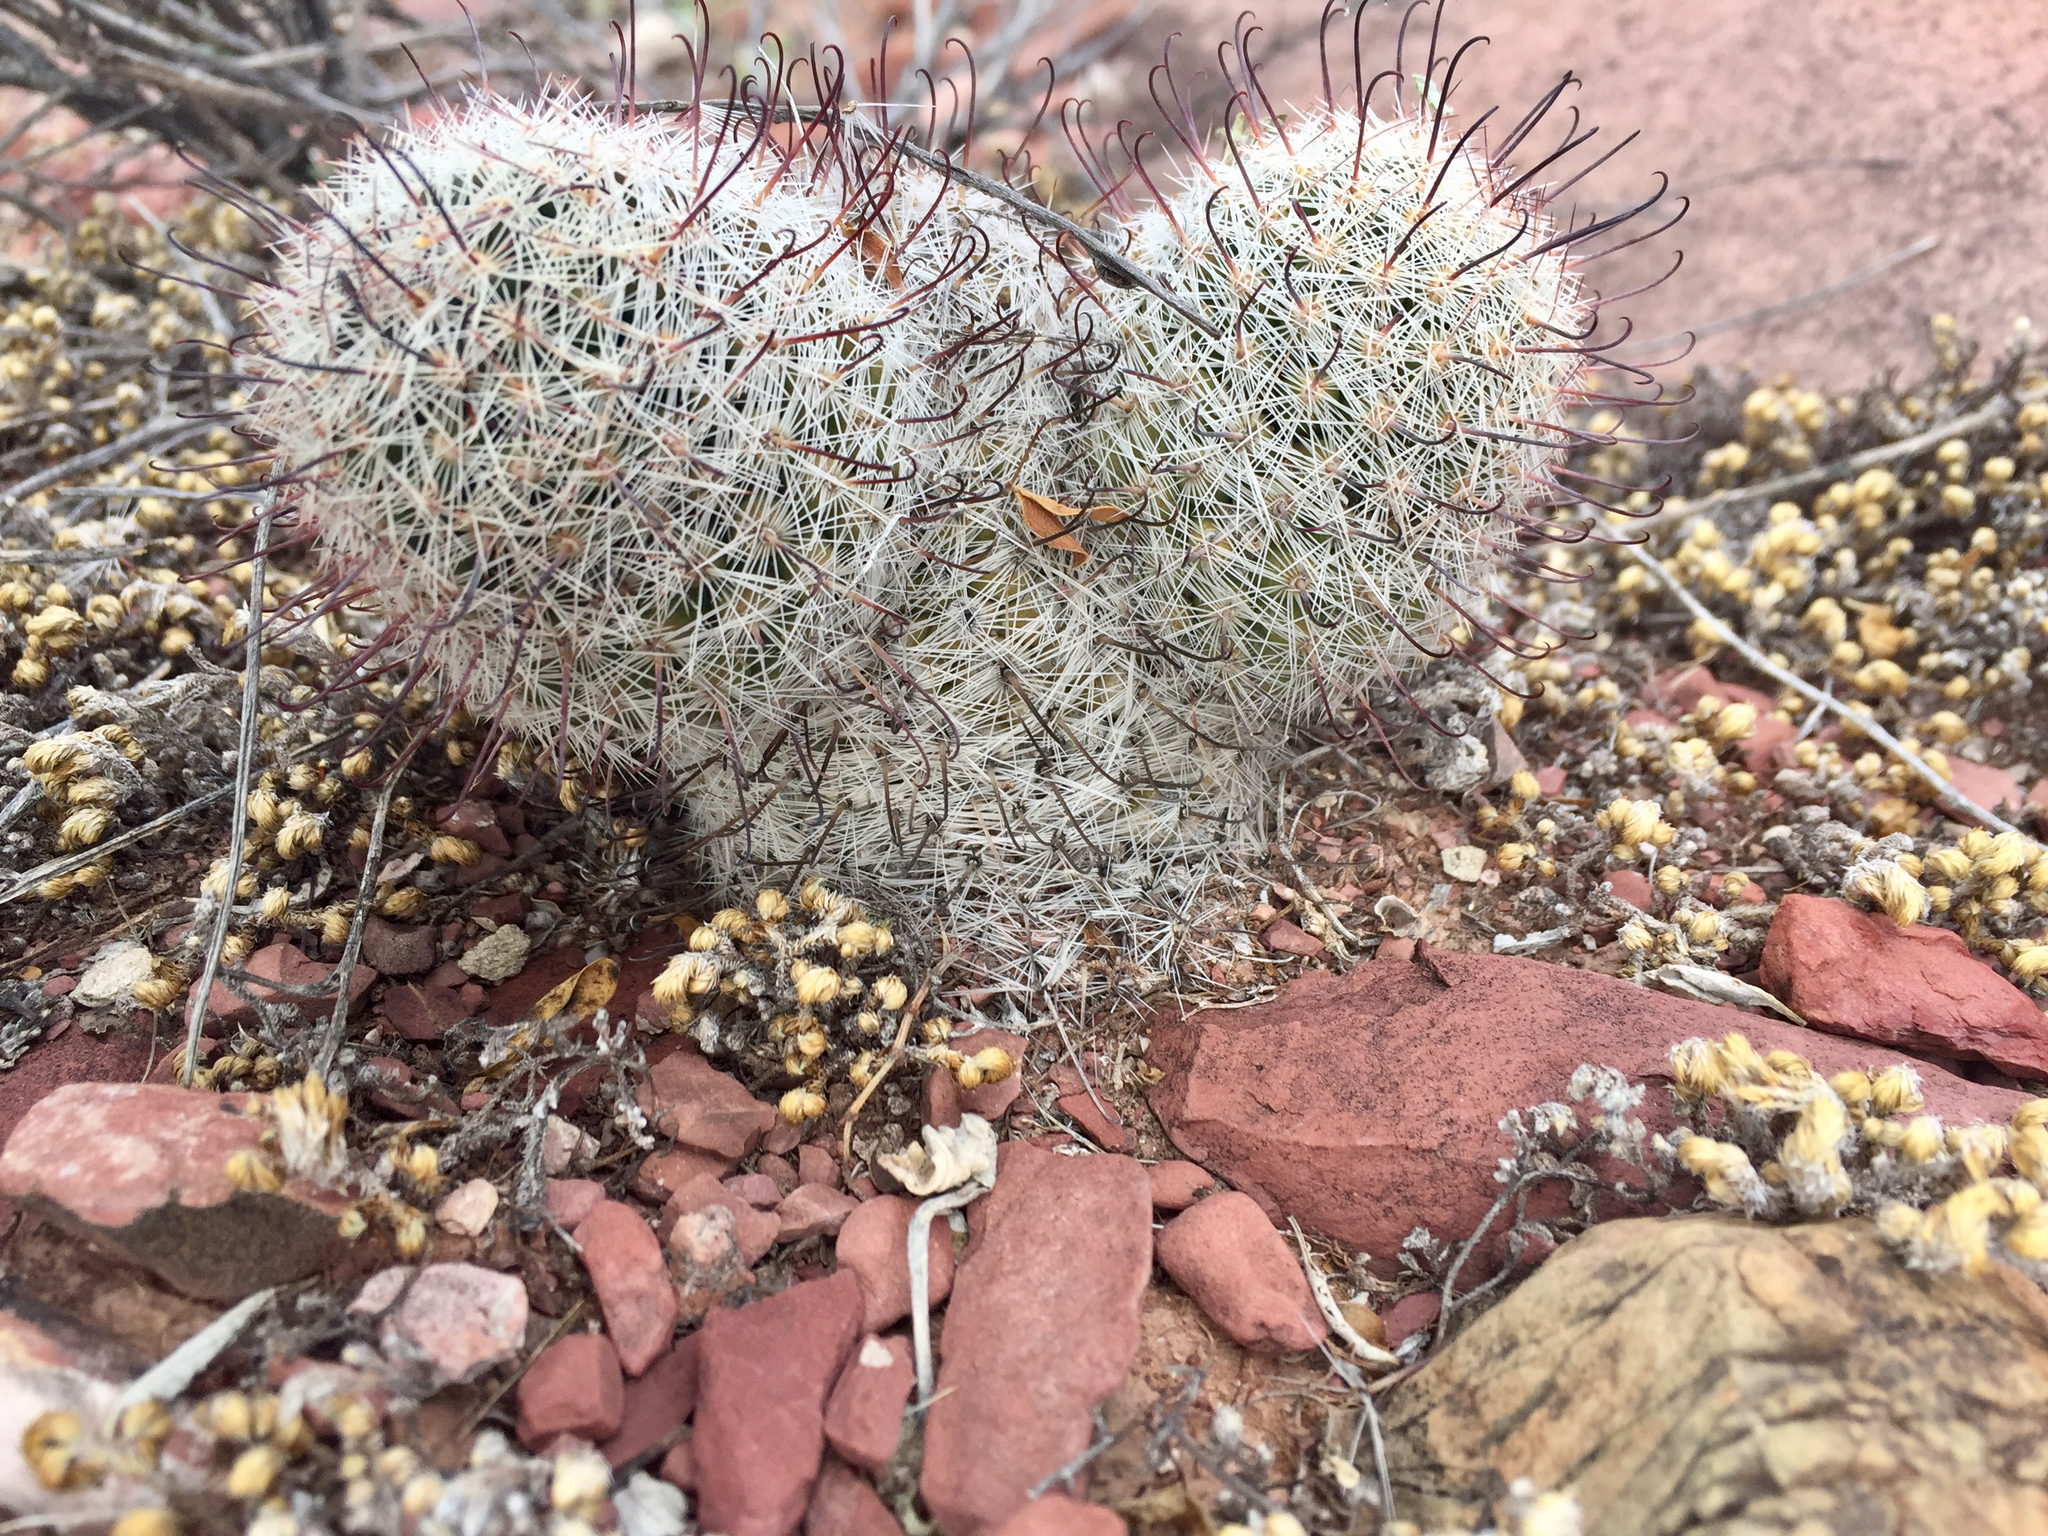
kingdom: Plantae
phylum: Tracheophyta
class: Magnoliopsida
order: Caryophyllales
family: Cactaceae
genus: Cochemiea
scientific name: Cochemiea grahamii
